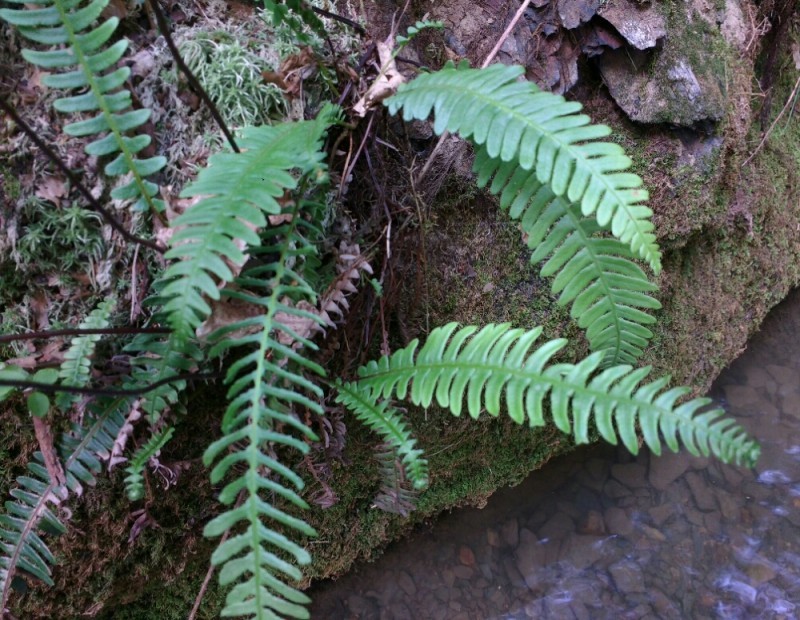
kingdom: Plantae
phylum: Tracheophyta
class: Polypodiopsida
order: Polypodiales
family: Blechnaceae
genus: Struthiopteris
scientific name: Struthiopteris spicant
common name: Deer fern
